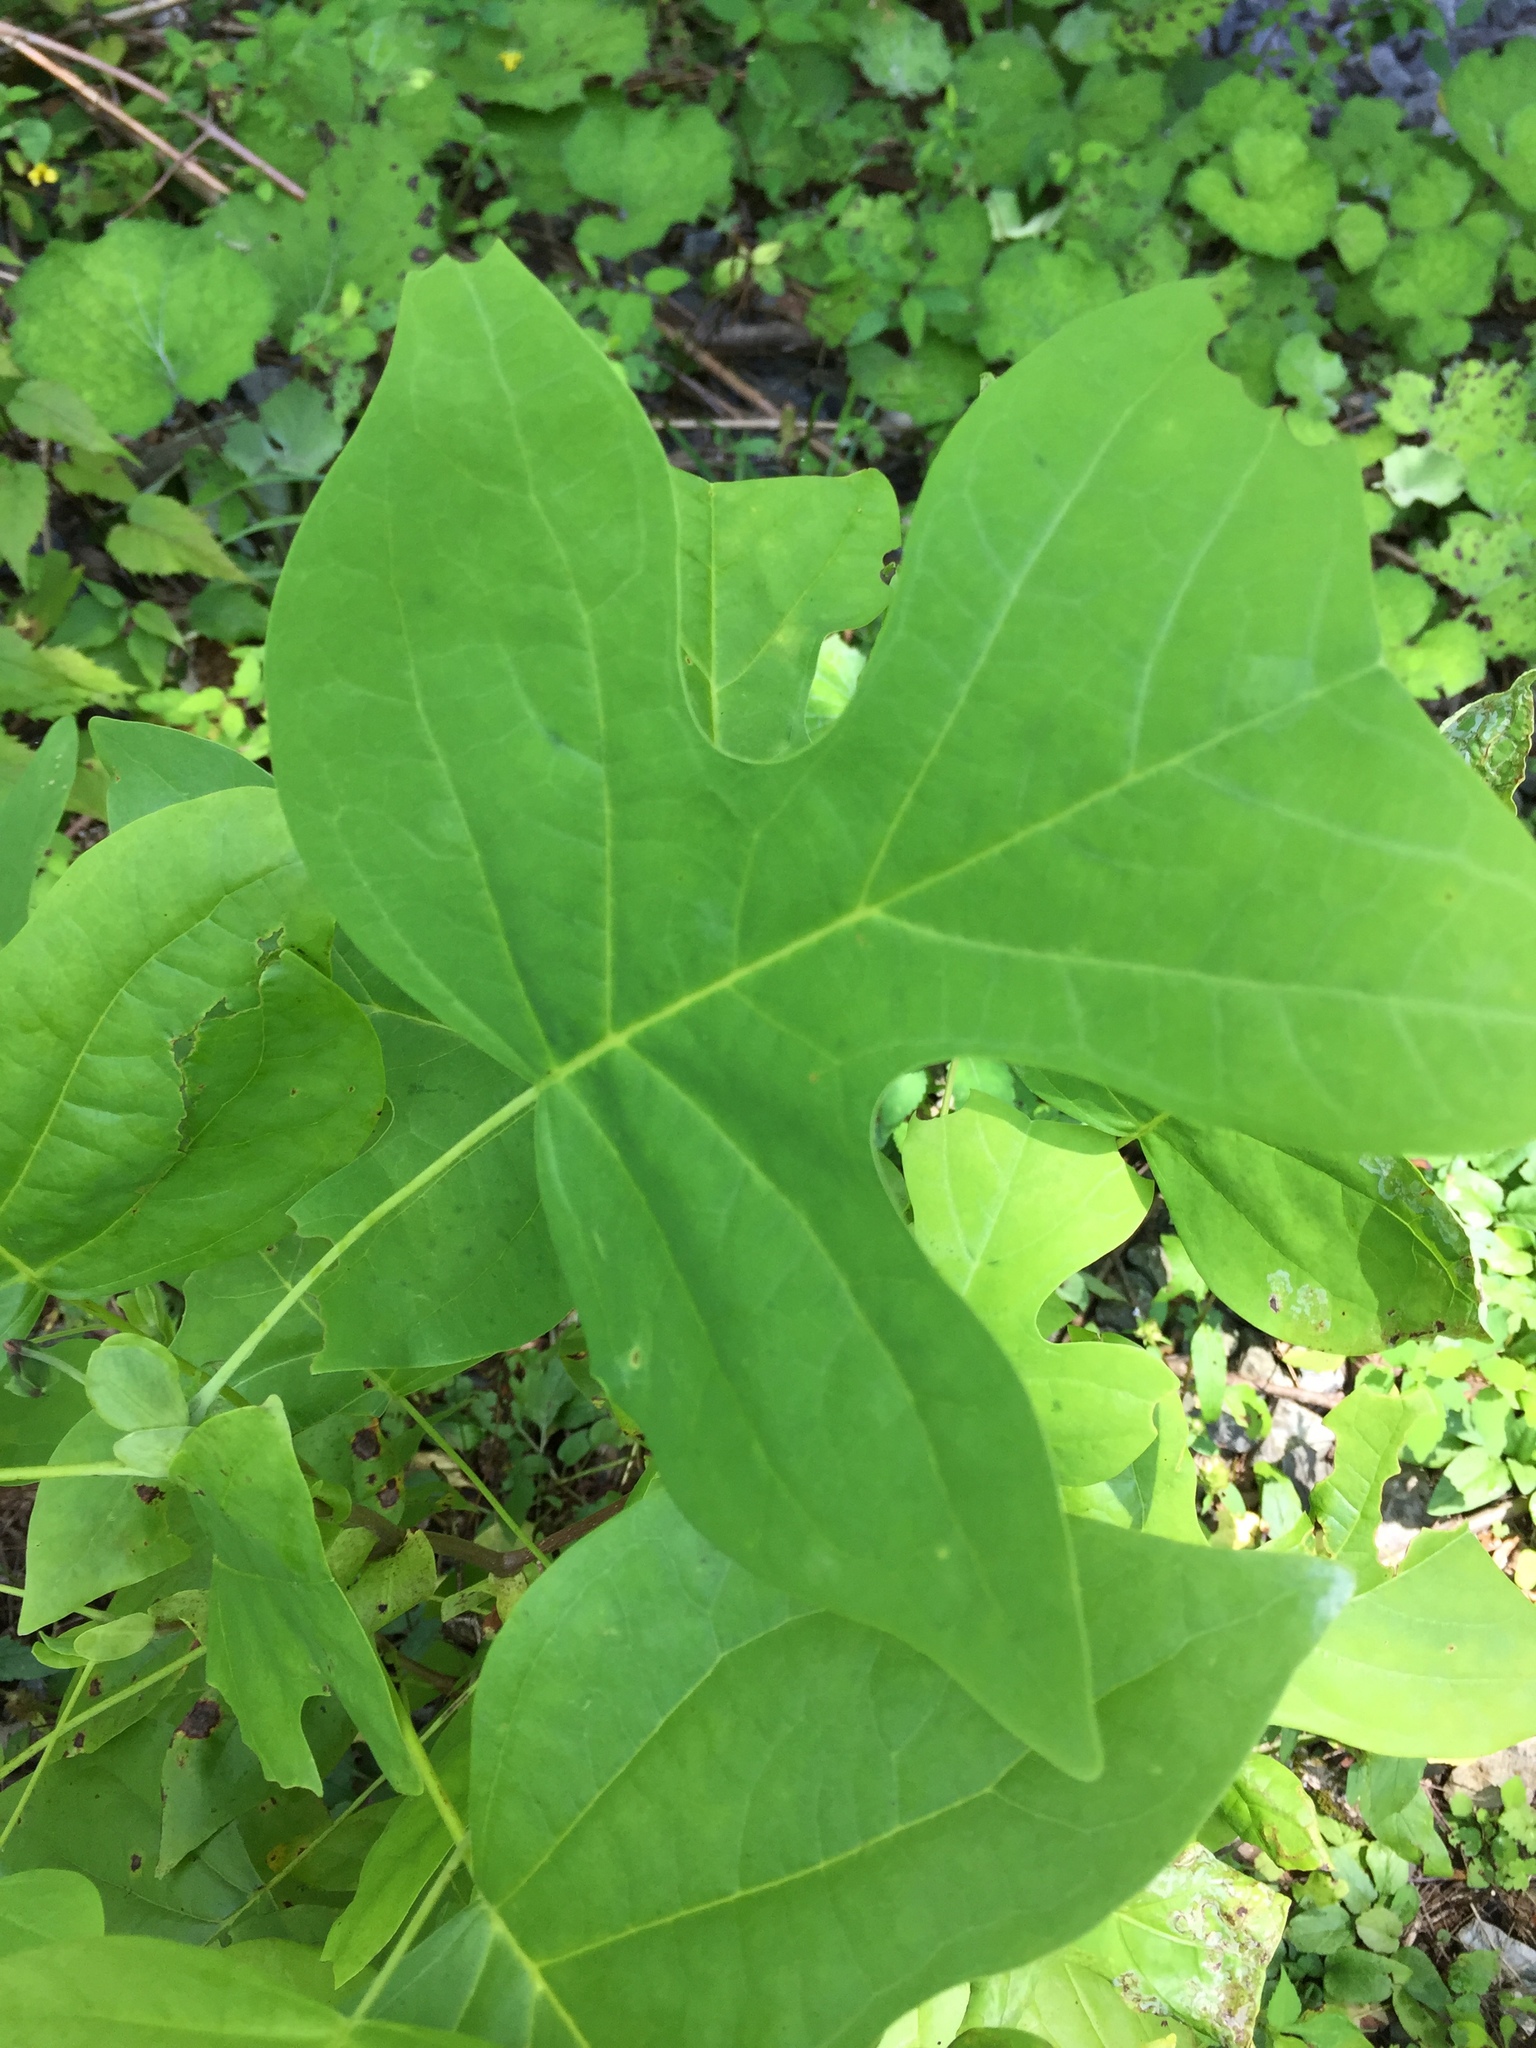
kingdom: Plantae
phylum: Tracheophyta
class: Magnoliopsida
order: Magnoliales
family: Magnoliaceae
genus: Liriodendron
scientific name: Liriodendron tulipifera
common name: Tulip tree
